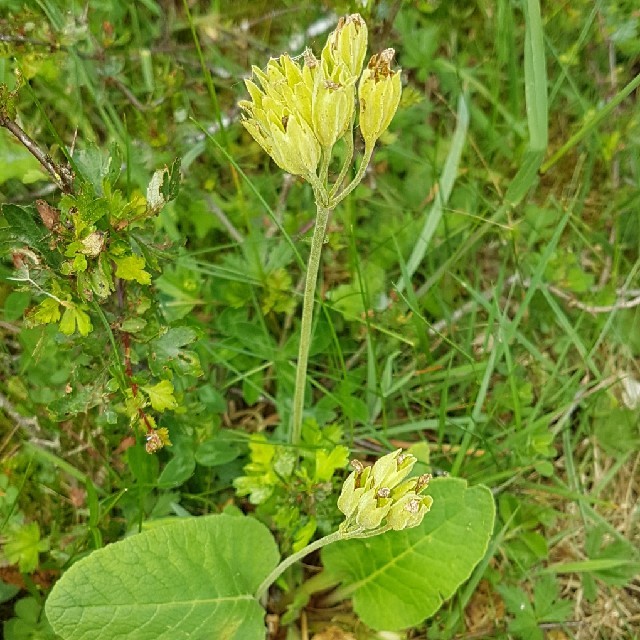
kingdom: Plantae
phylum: Tracheophyta
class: Magnoliopsida
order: Ericales
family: Primulaceae
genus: Primula
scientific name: Primula veris
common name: Cowslip
